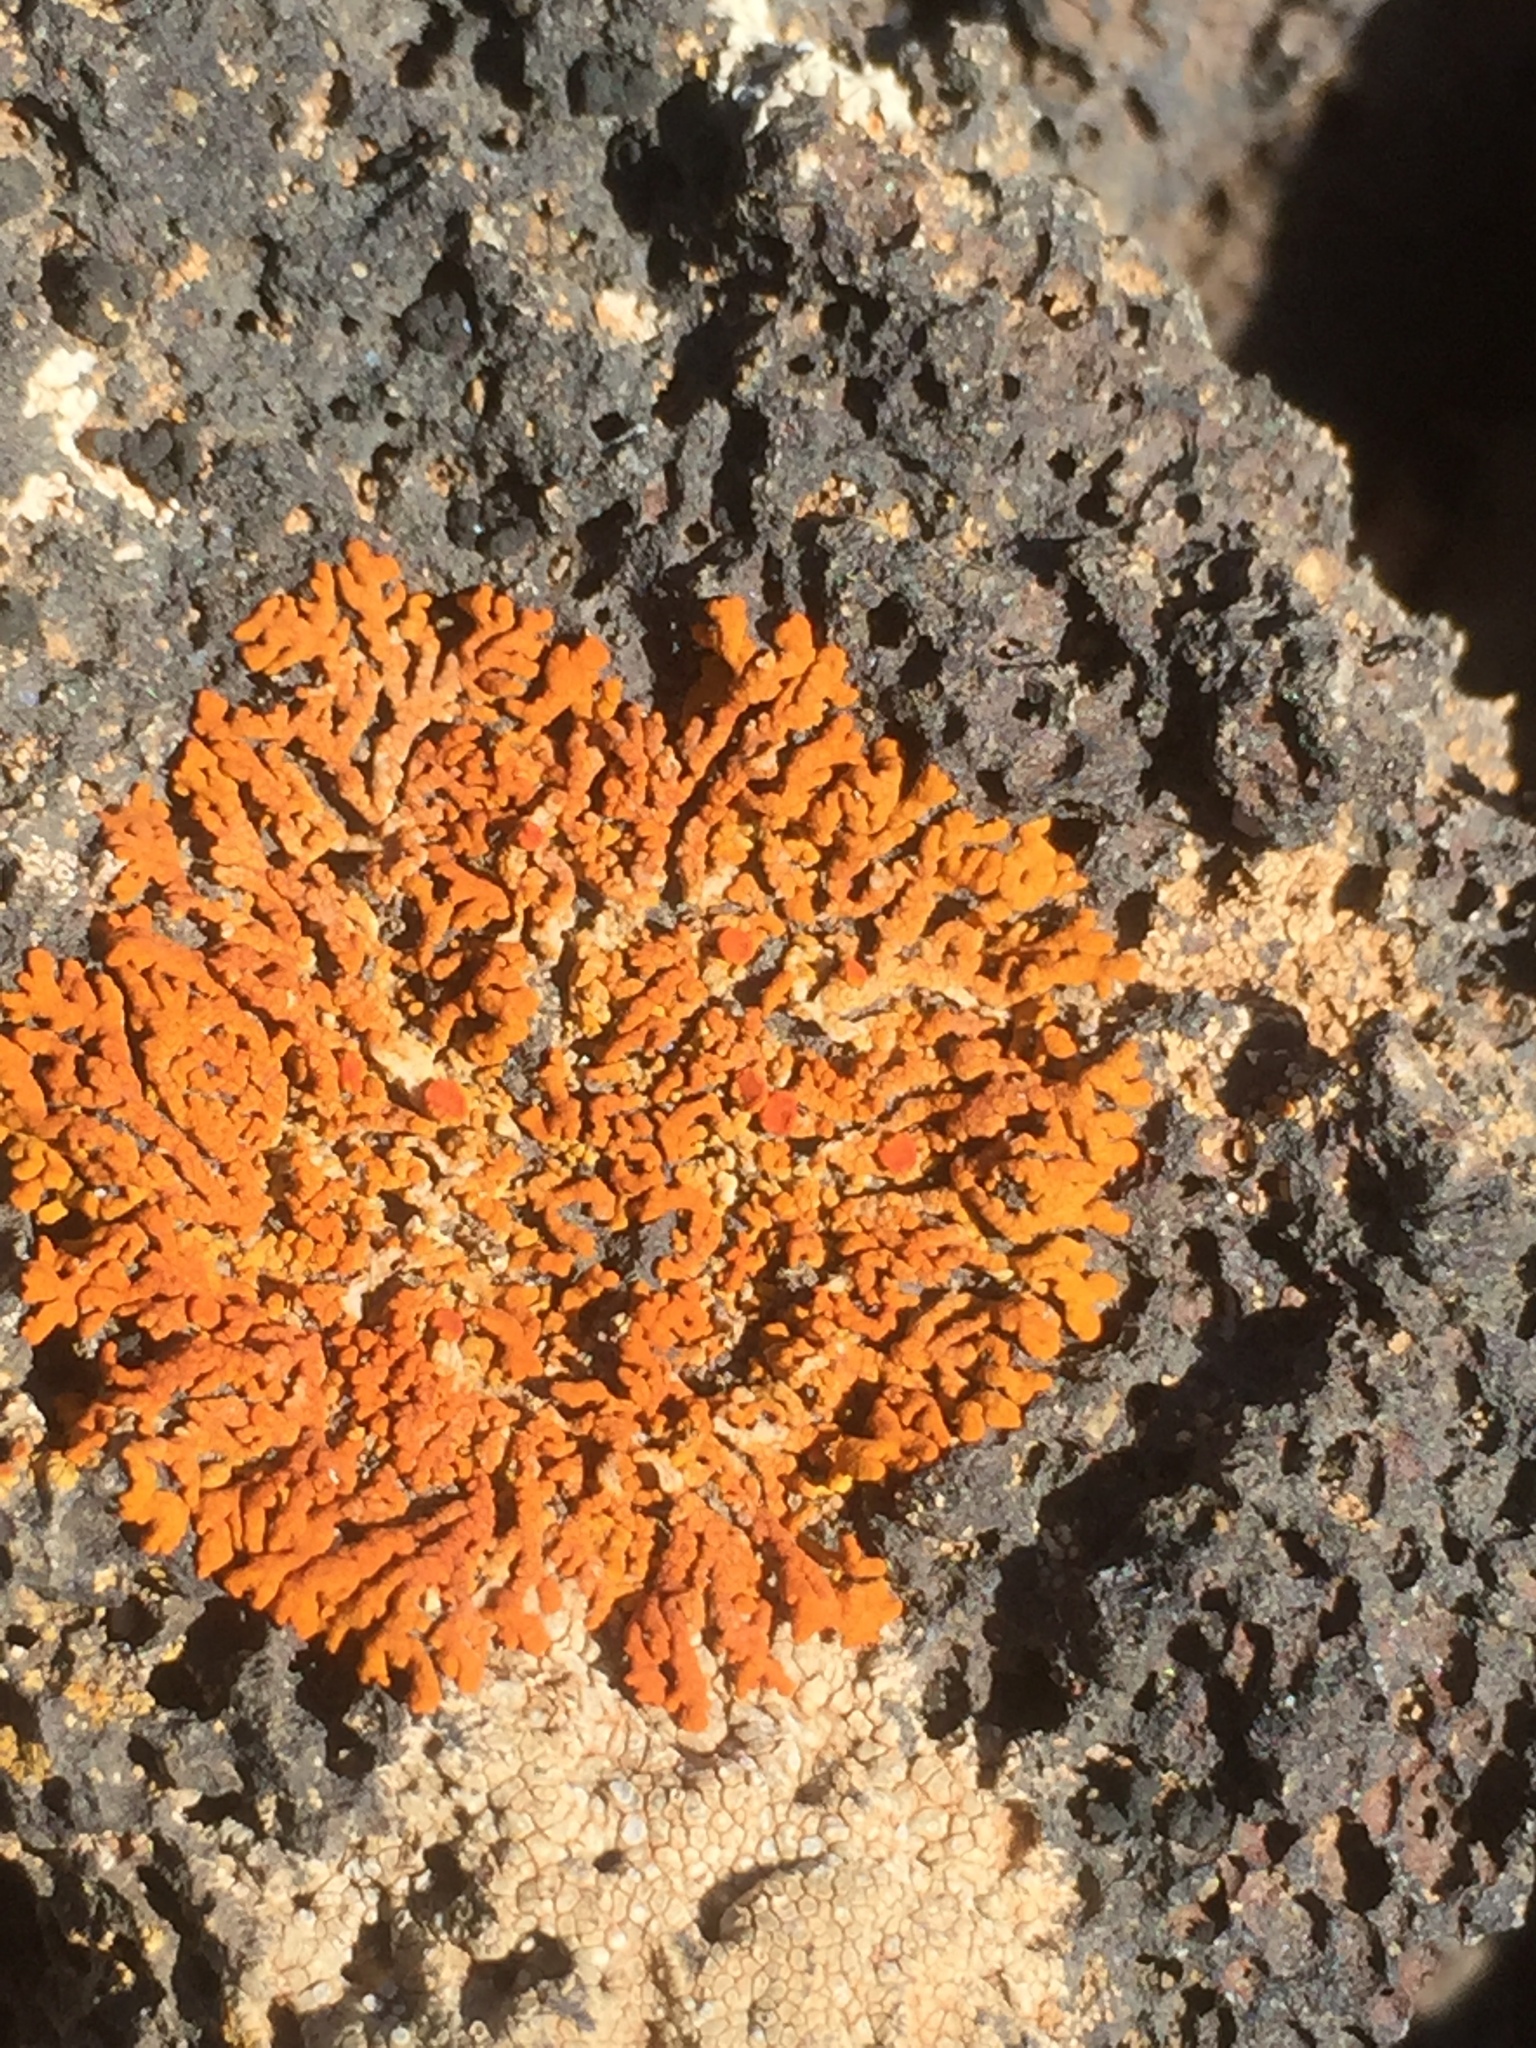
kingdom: Fungi
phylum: Ascomycota
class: Lecanoromycetes
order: Teloschistales
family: Teloschistaceae
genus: Xanthoria
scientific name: Xanthoria elegans
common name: Elegant sunburst lichen
